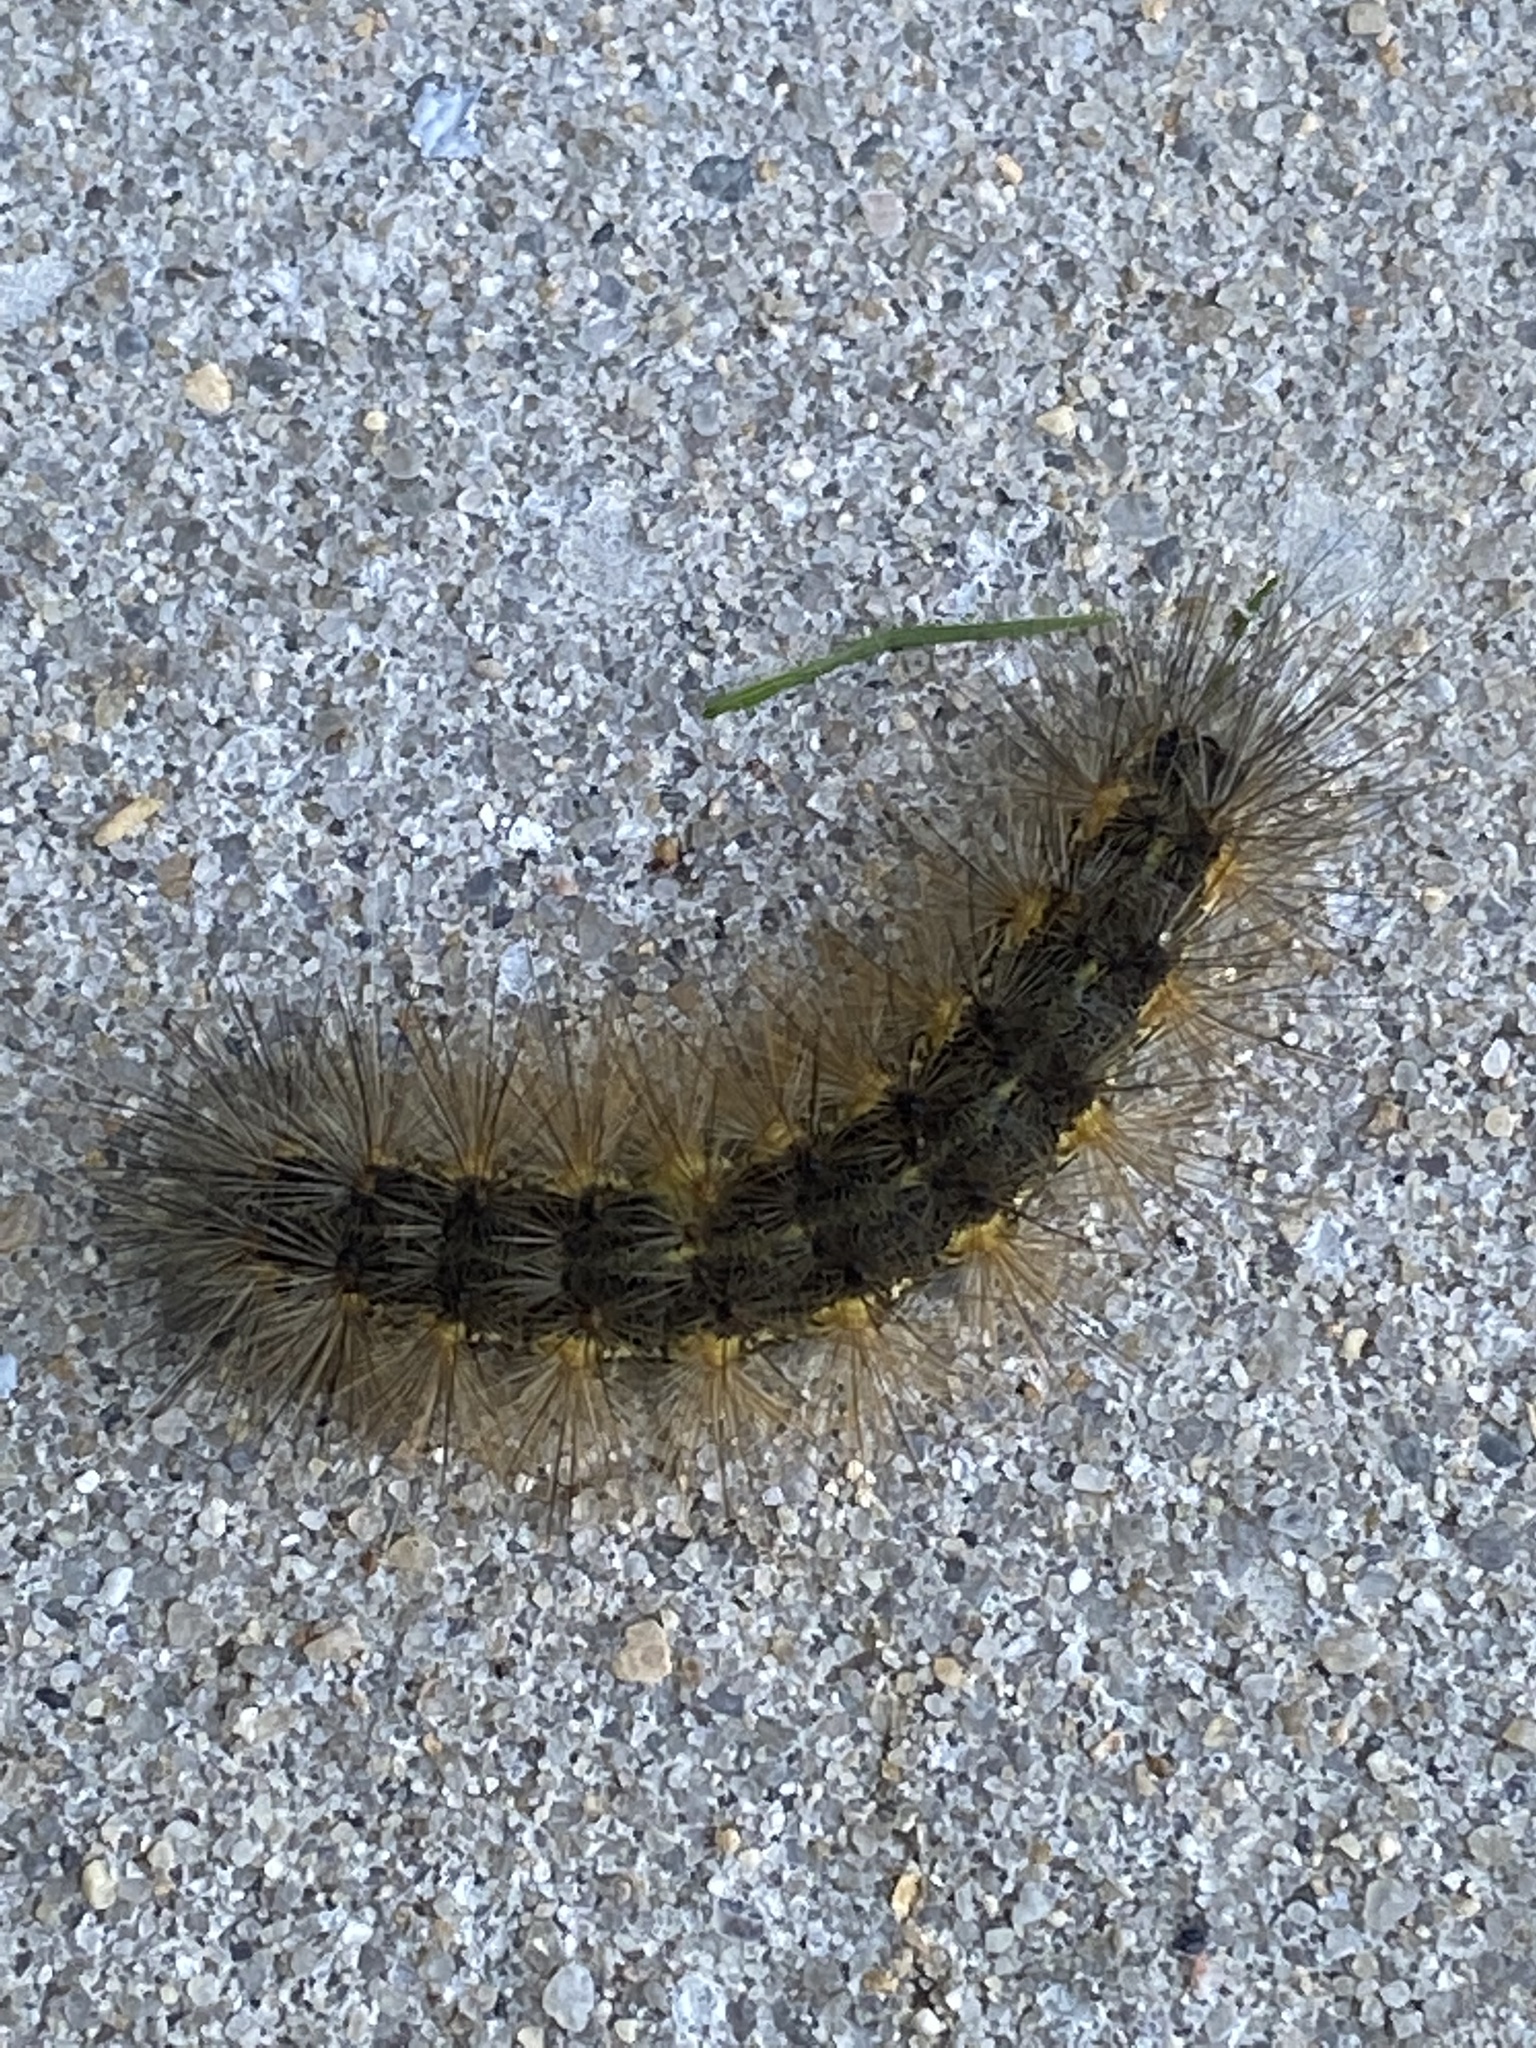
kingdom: Animalia
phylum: Arthropoda
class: Insecta
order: Lepidoptera
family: Erebidae
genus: Estigmene
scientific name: Estigmene acrea
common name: Salt marsh moth
